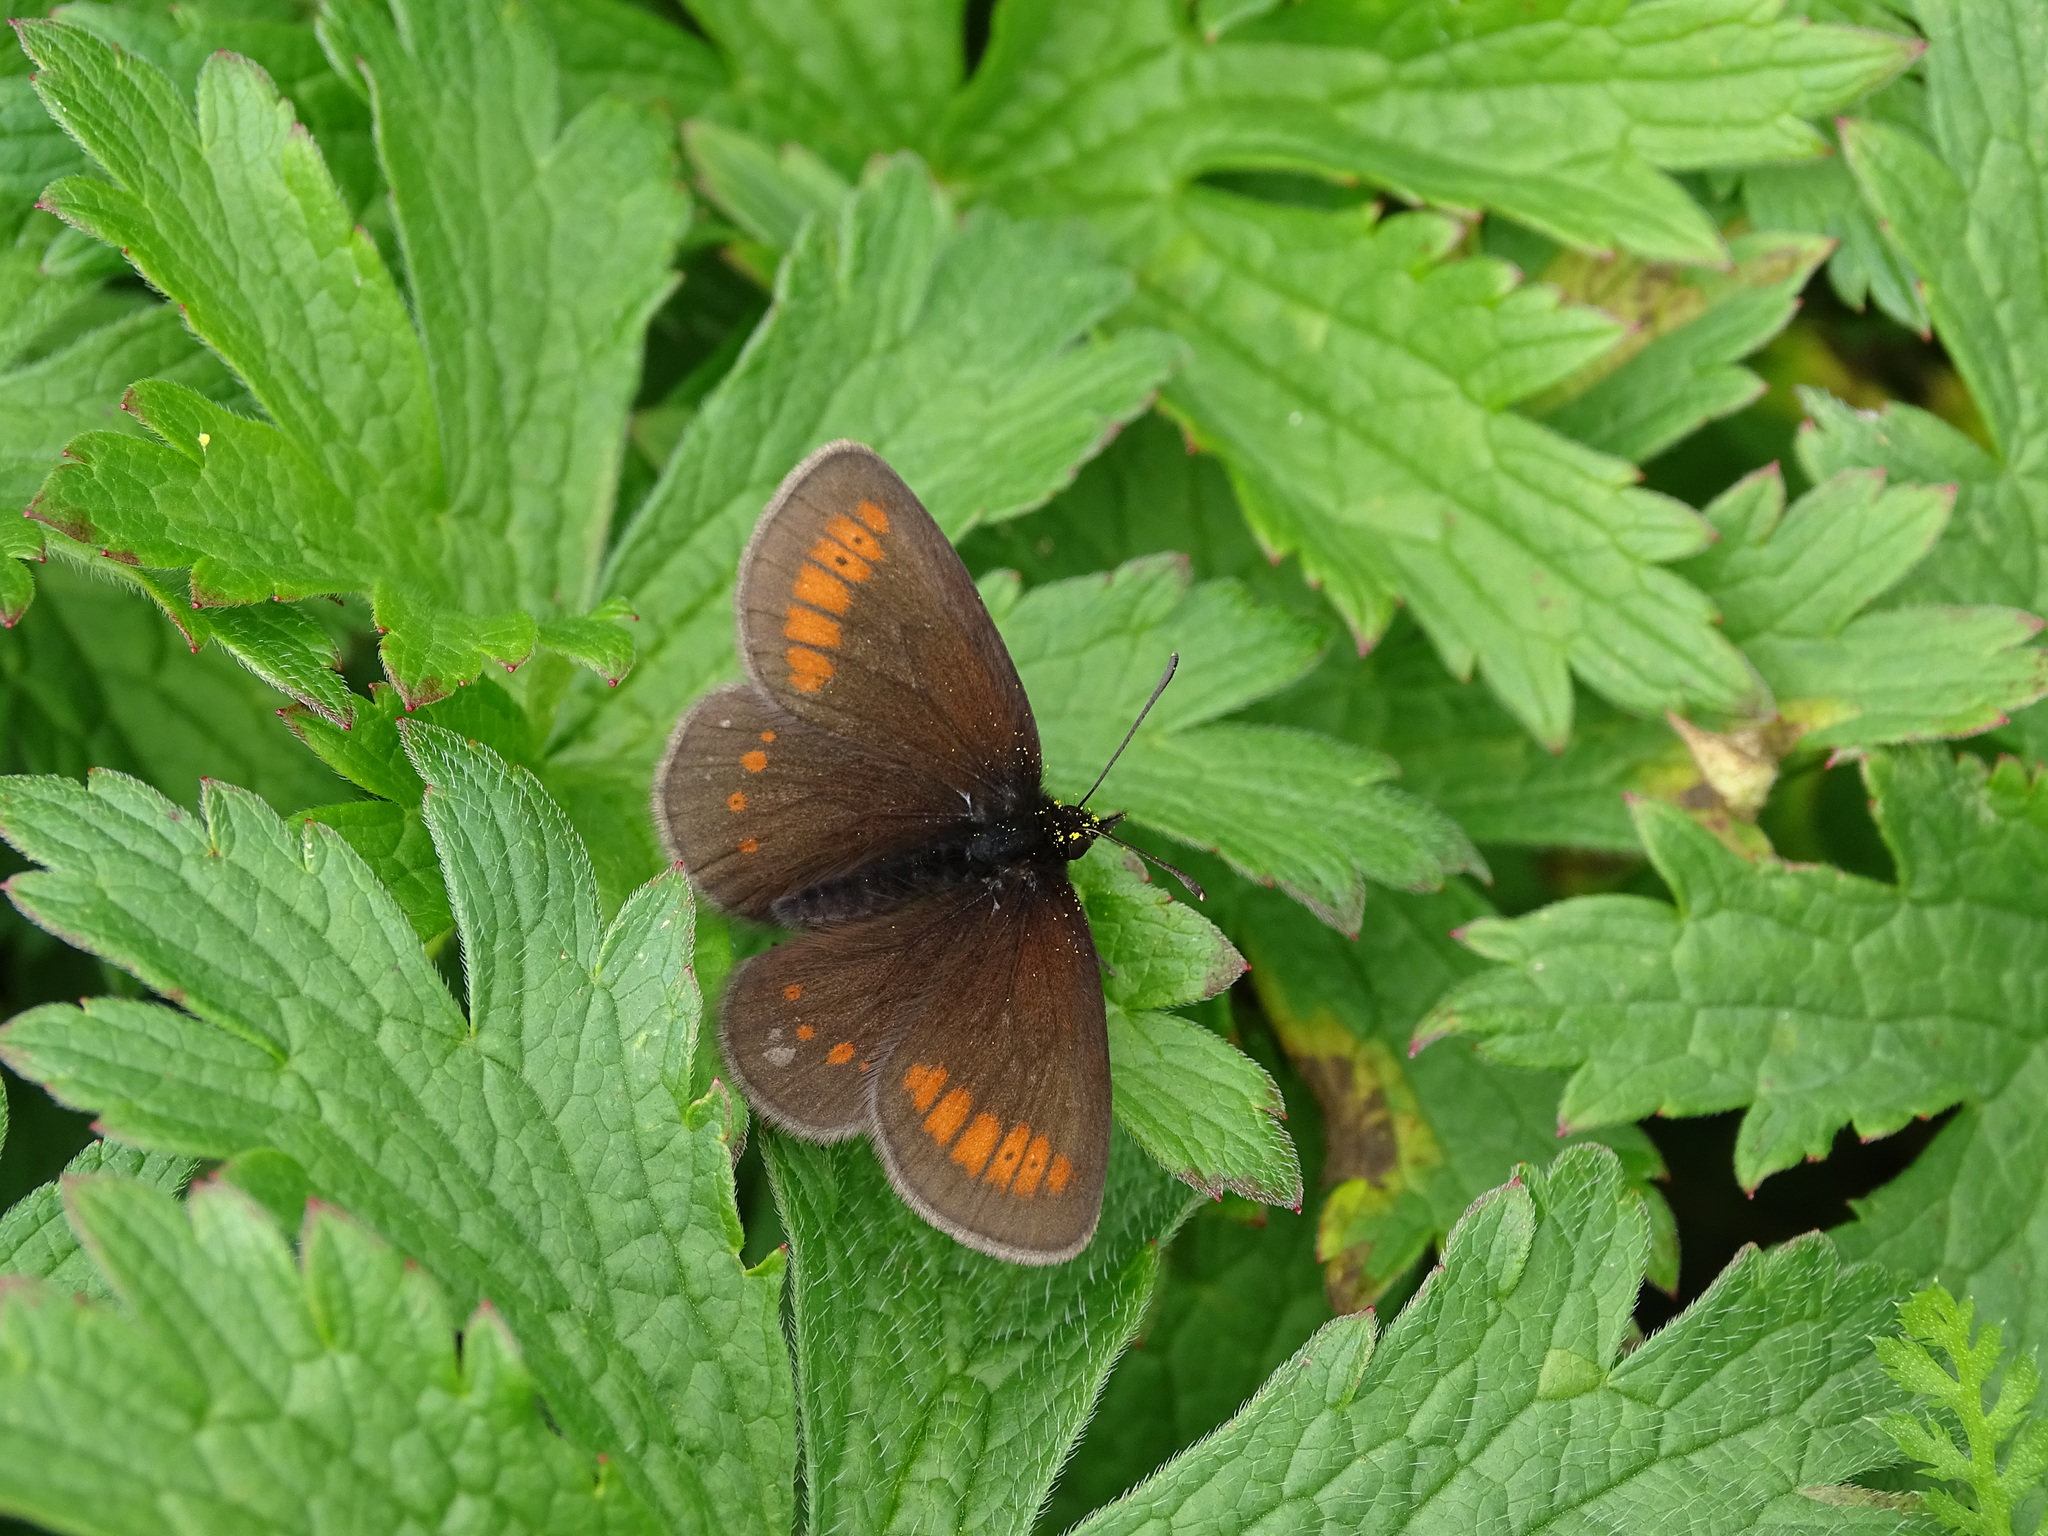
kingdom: Animalia
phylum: Arthropoda
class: Insecta
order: Lepidoptera
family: Nymphalidae
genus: Erebia
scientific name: Erebia melampus
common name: Lesser mountain ringlet
